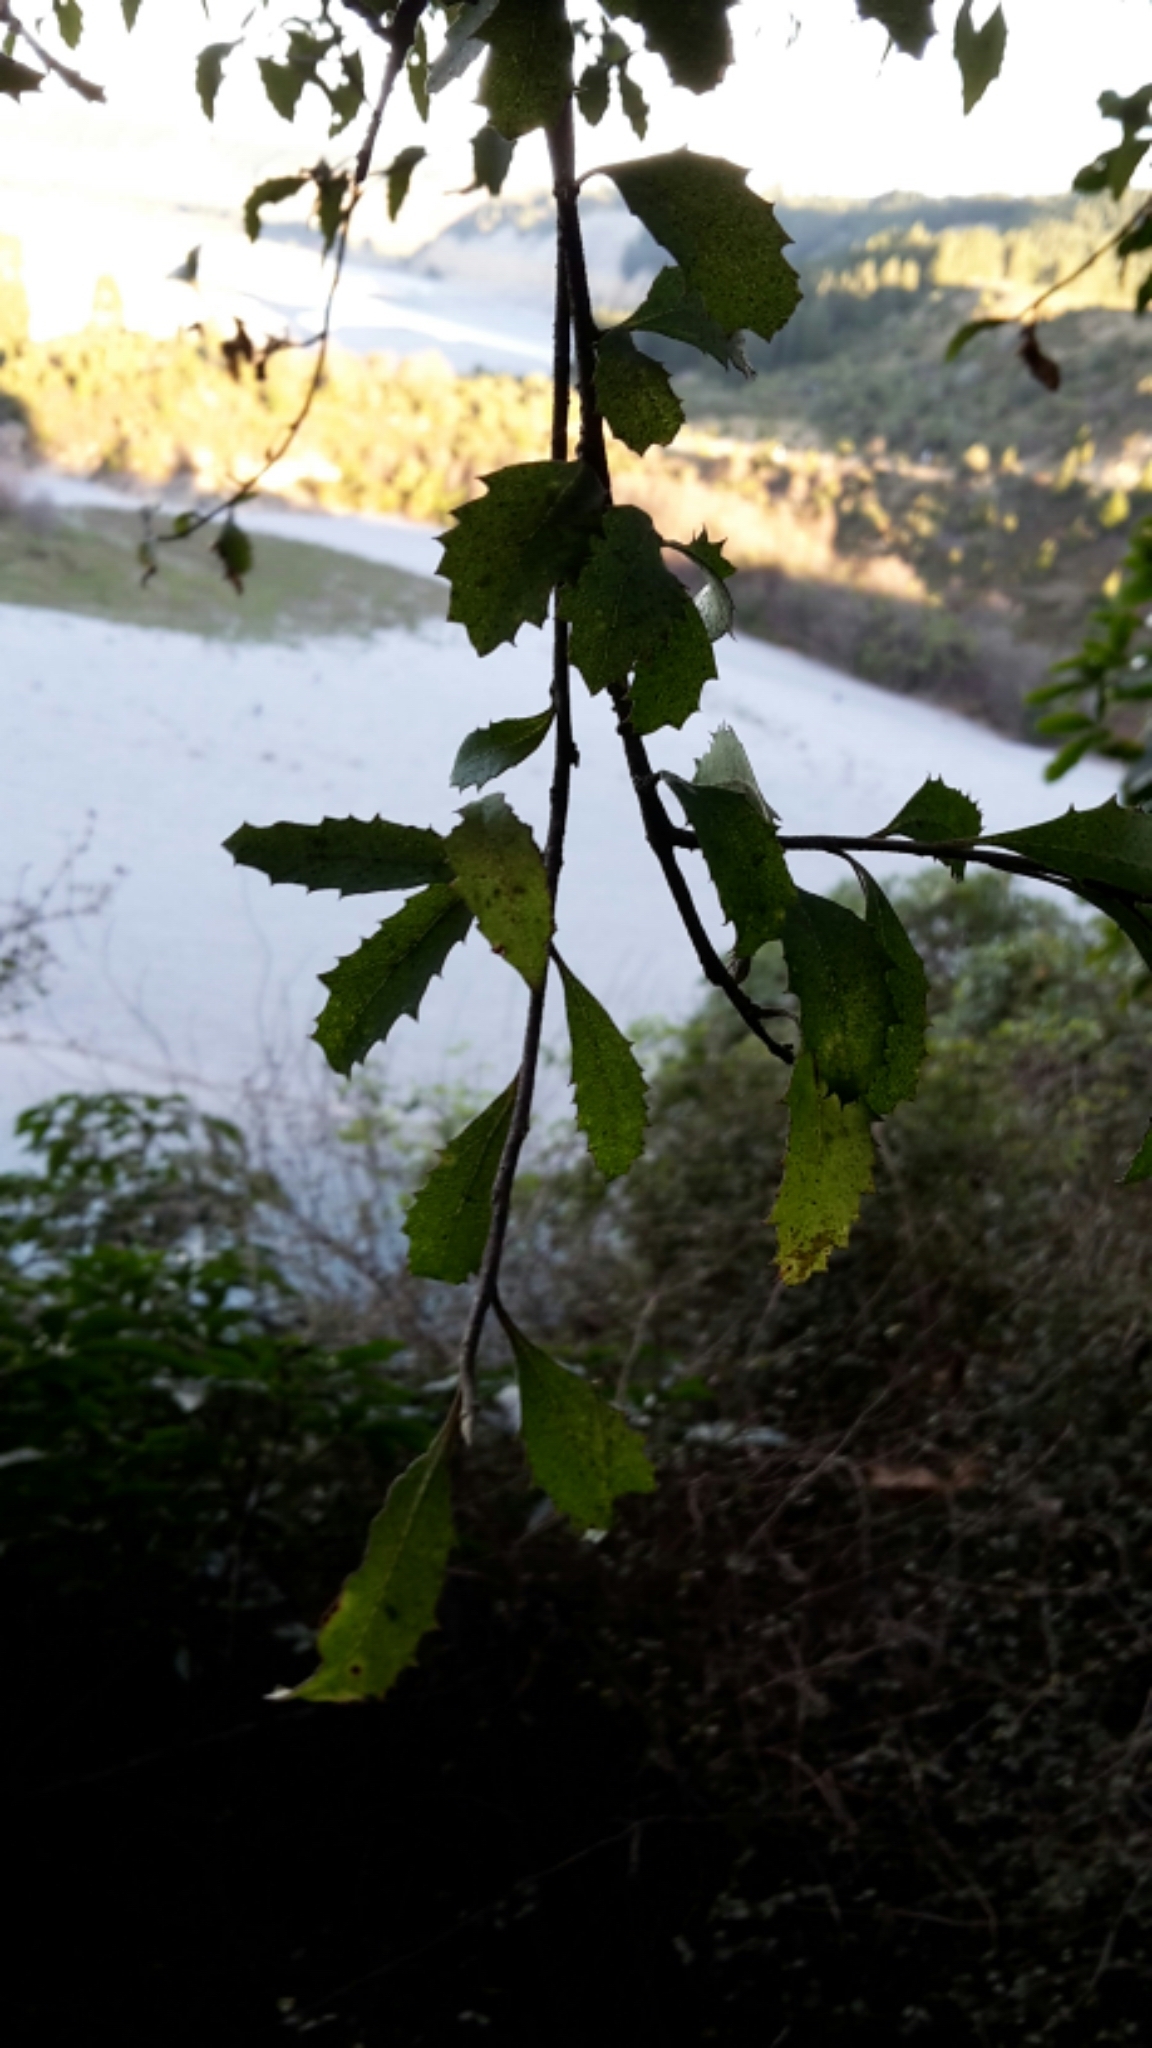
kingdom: Plantae
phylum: Tracheophyta
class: Magnoliopsida
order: Malvales
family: Malvaceae
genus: Hoheria
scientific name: Hoheria angustifolia
